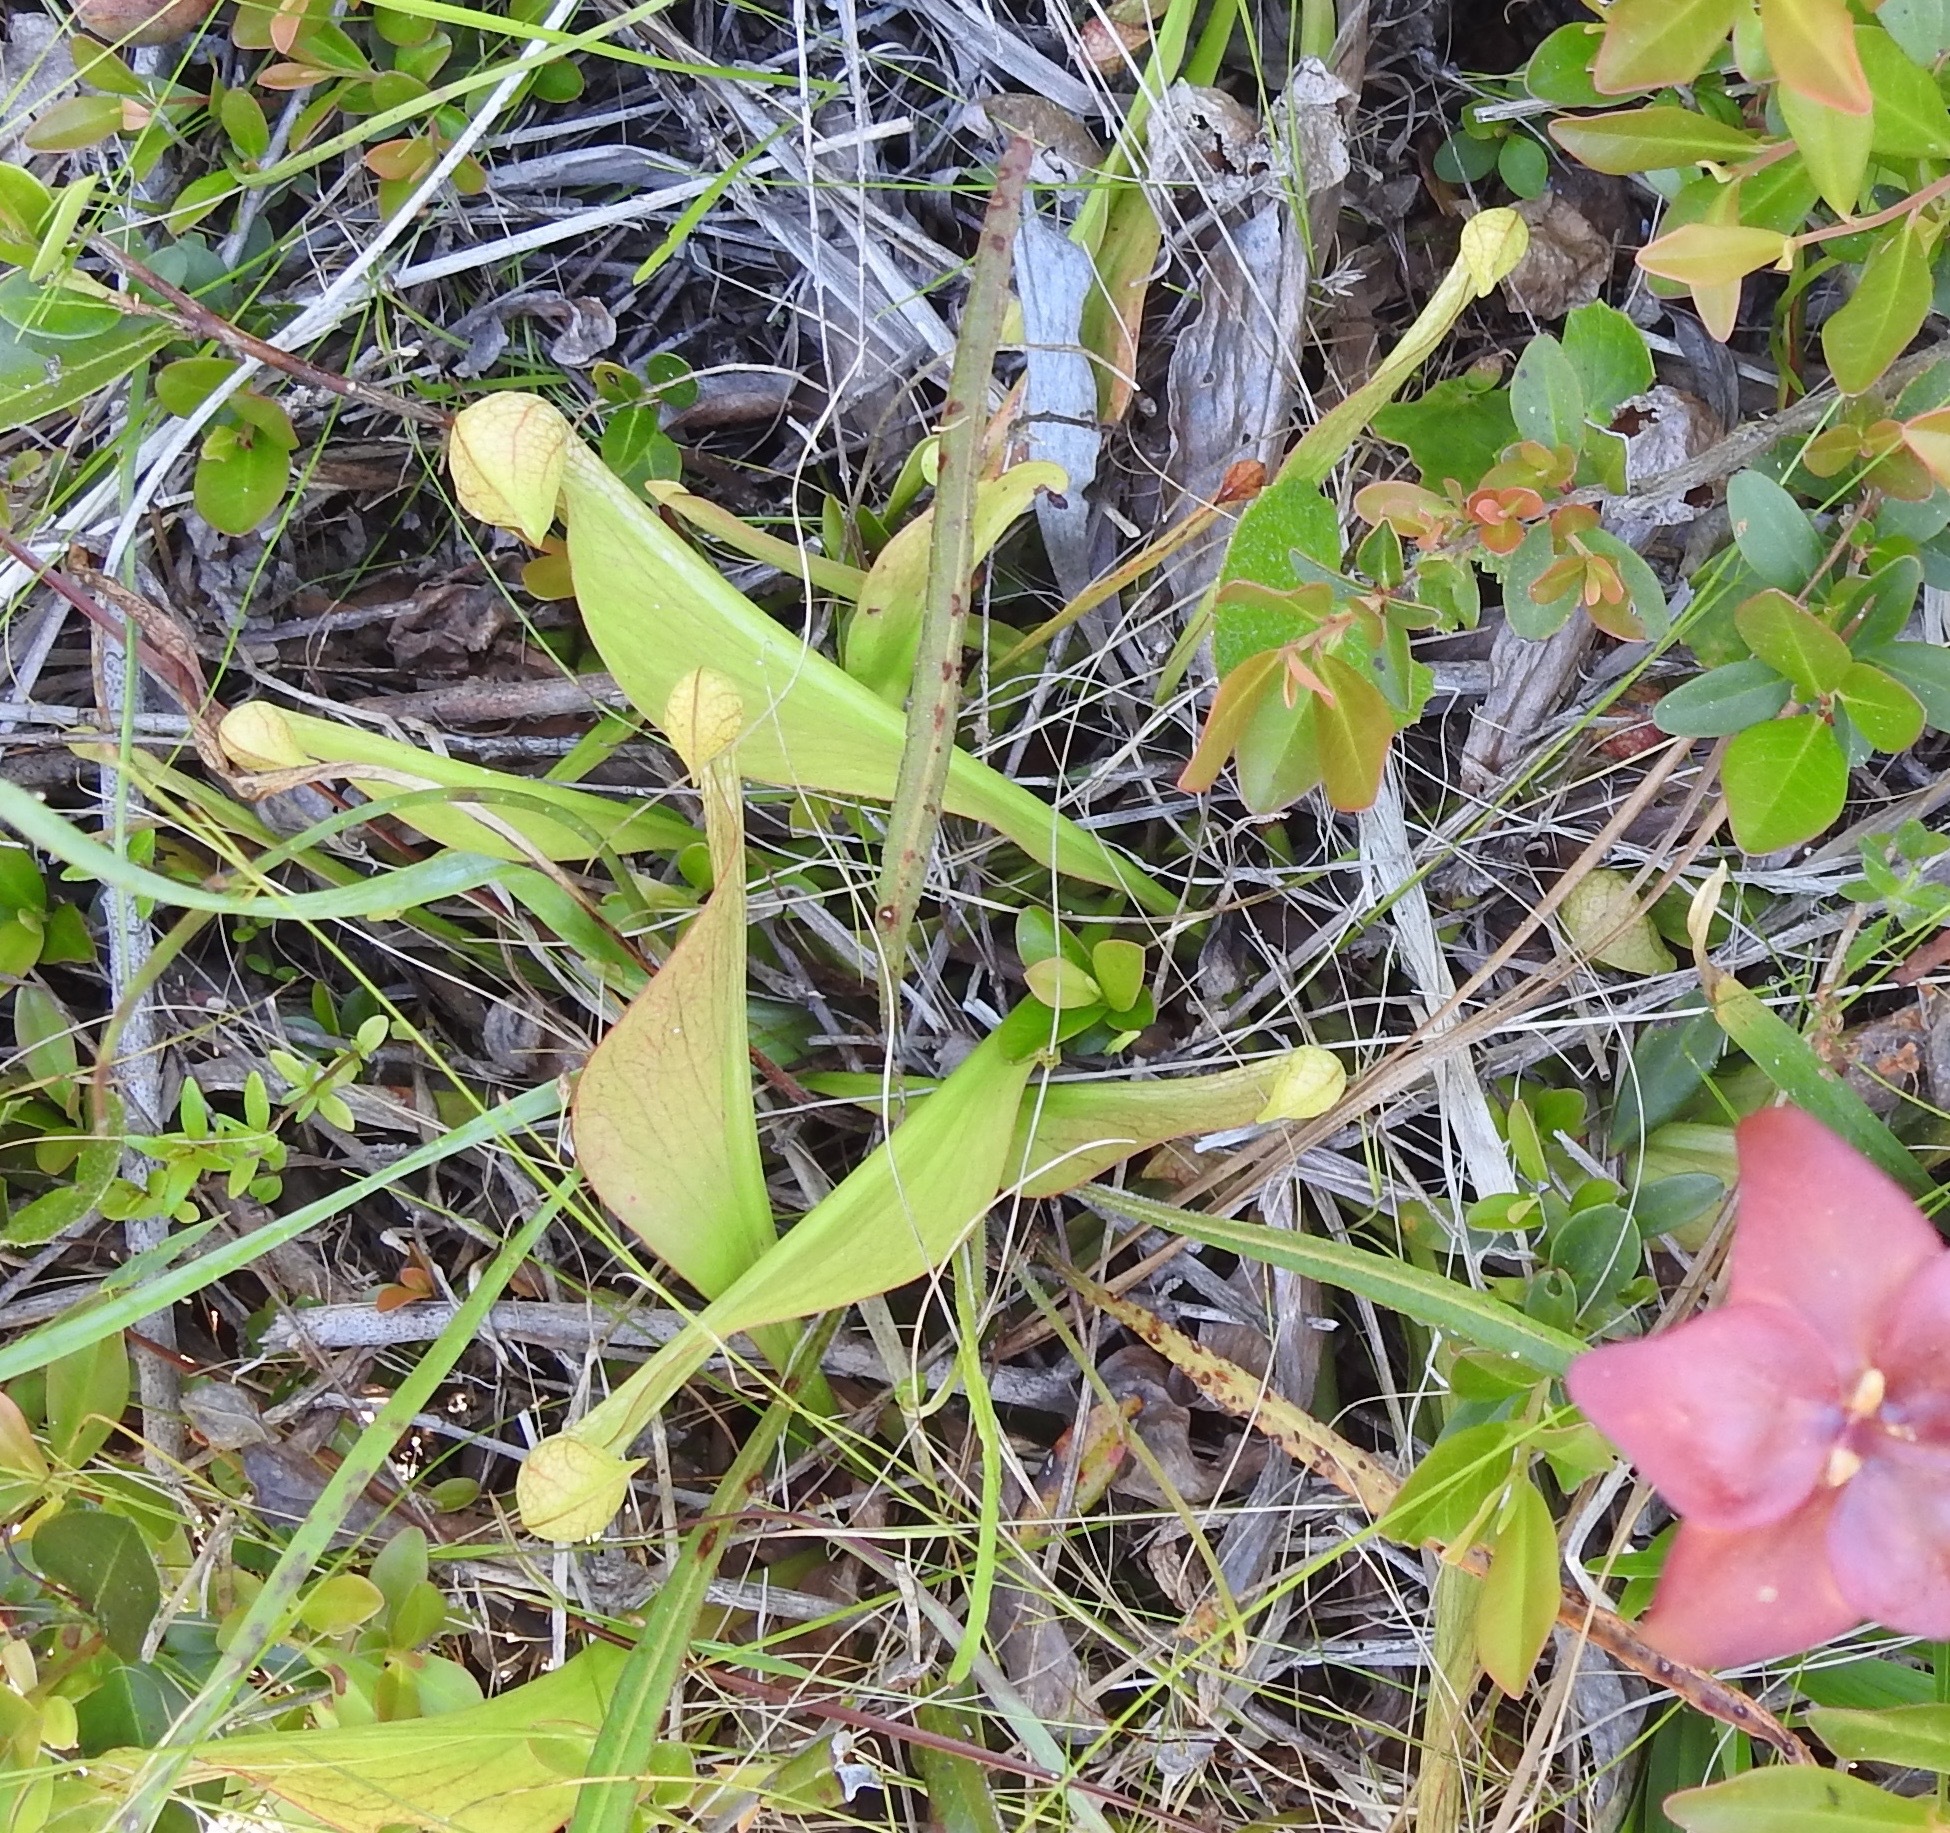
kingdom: Plantae
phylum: Tracheophyta
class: Magnoliopsida
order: Ericales
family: Sarraceniaceae
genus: Sarracenia
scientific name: Sarracenia psittacina
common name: Parrot pitcherplant
